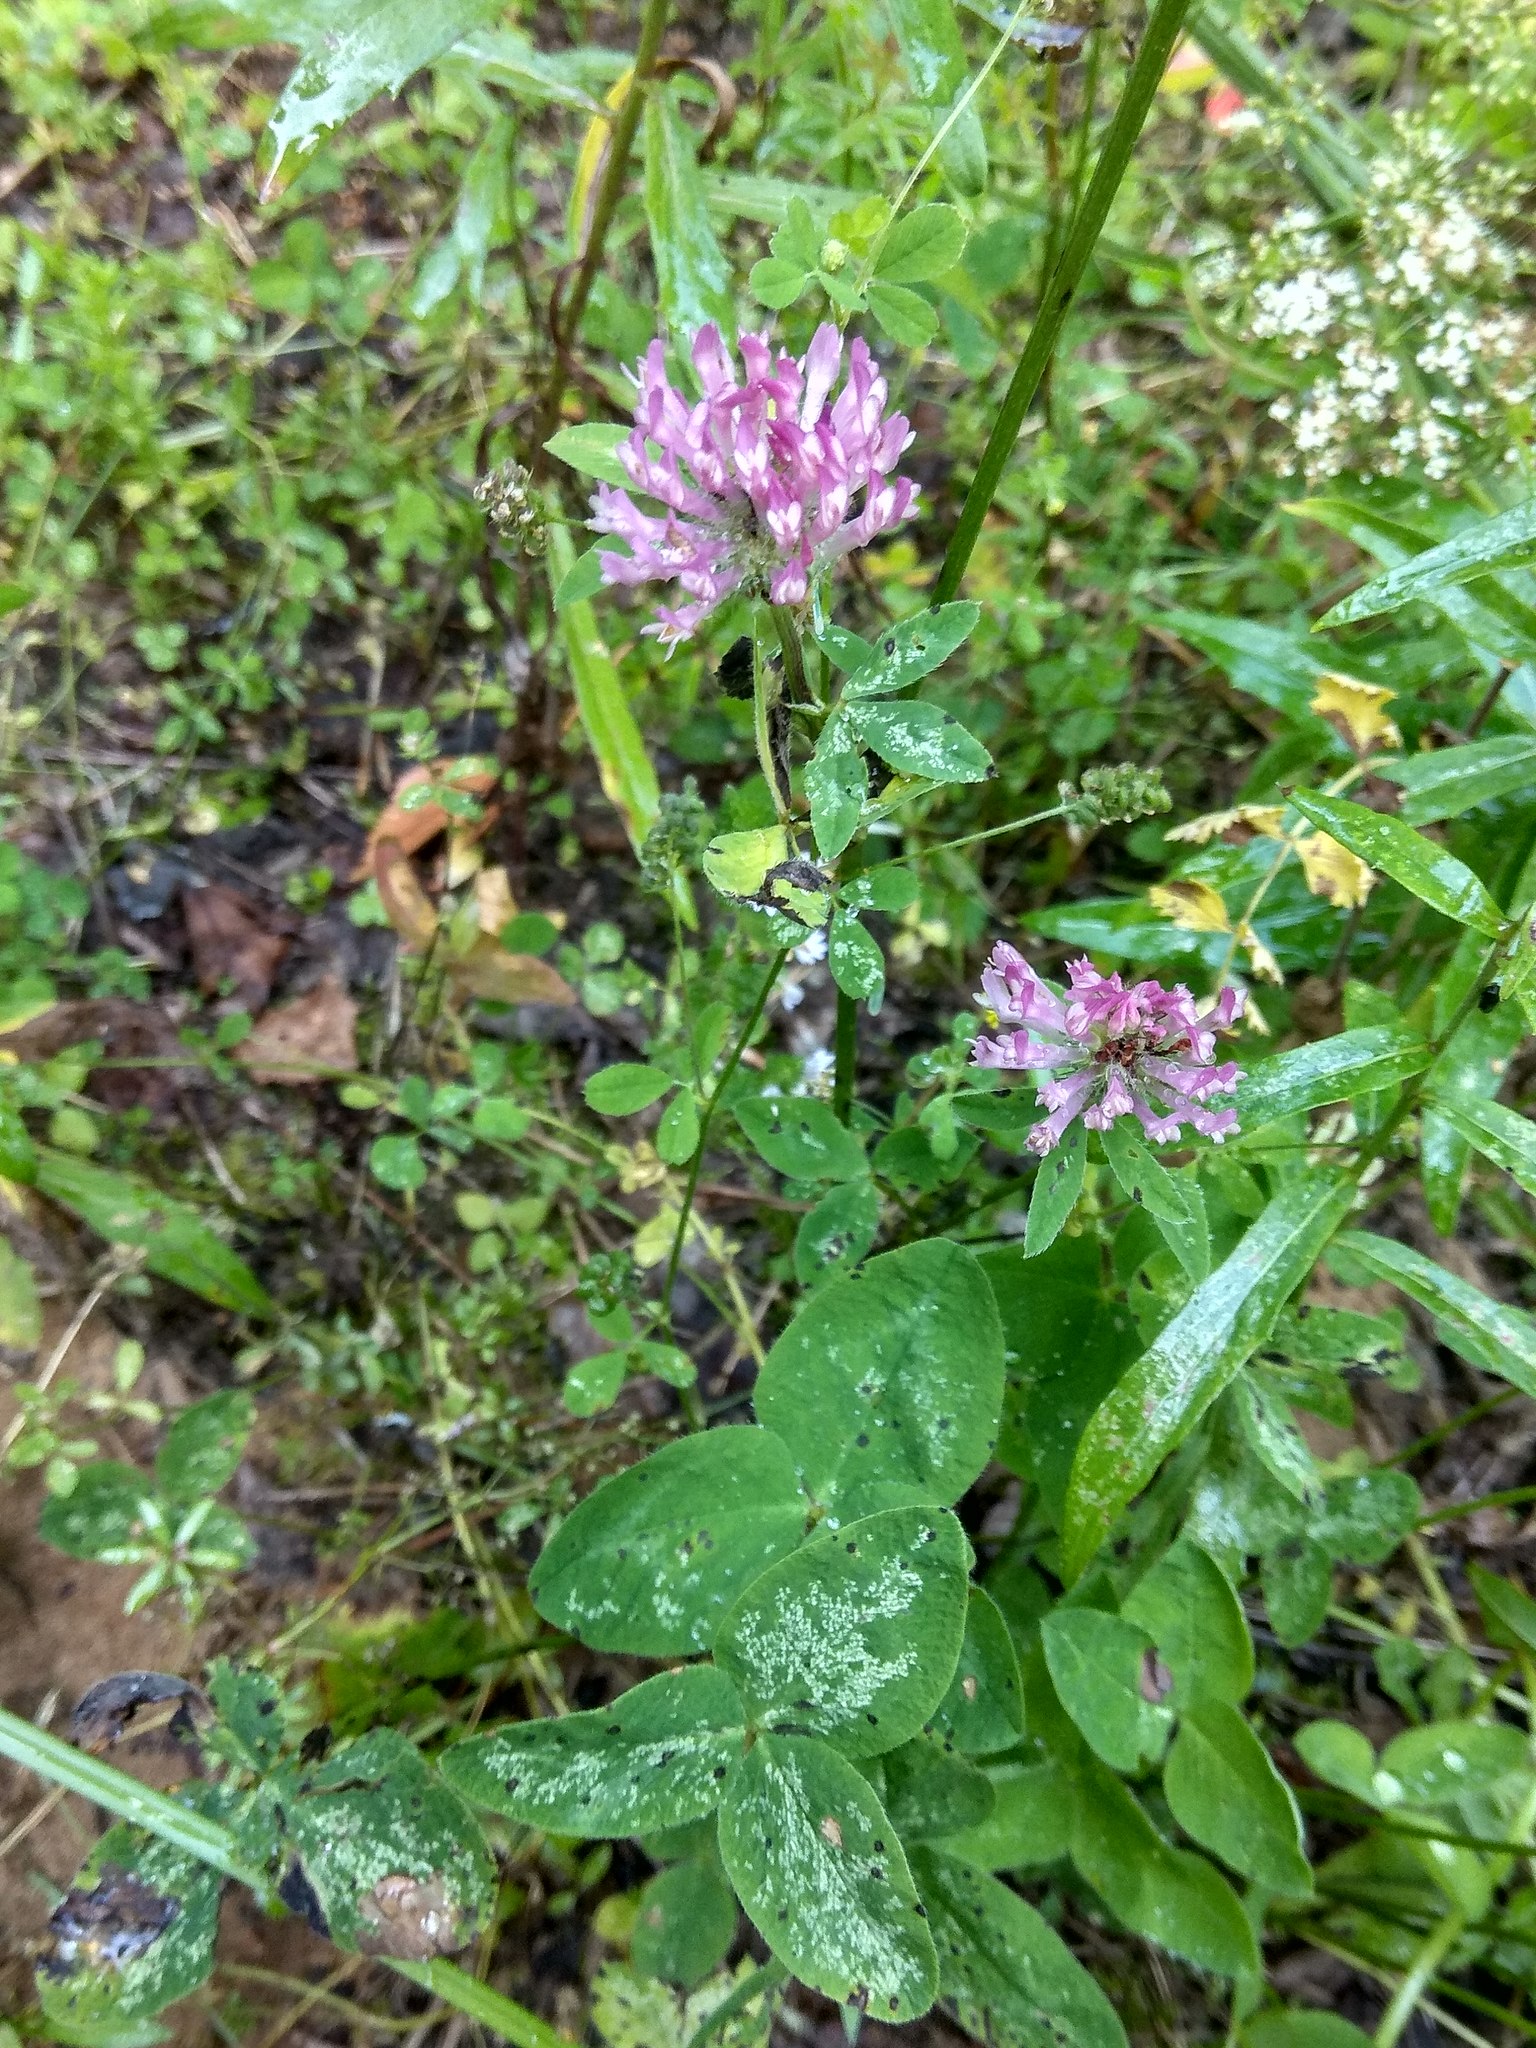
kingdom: Plantae
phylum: Tracheophyta
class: Magnoliopsida
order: Fabales
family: Fabaceae
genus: Trifolium
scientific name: Trifolium pratense
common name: Red clover
